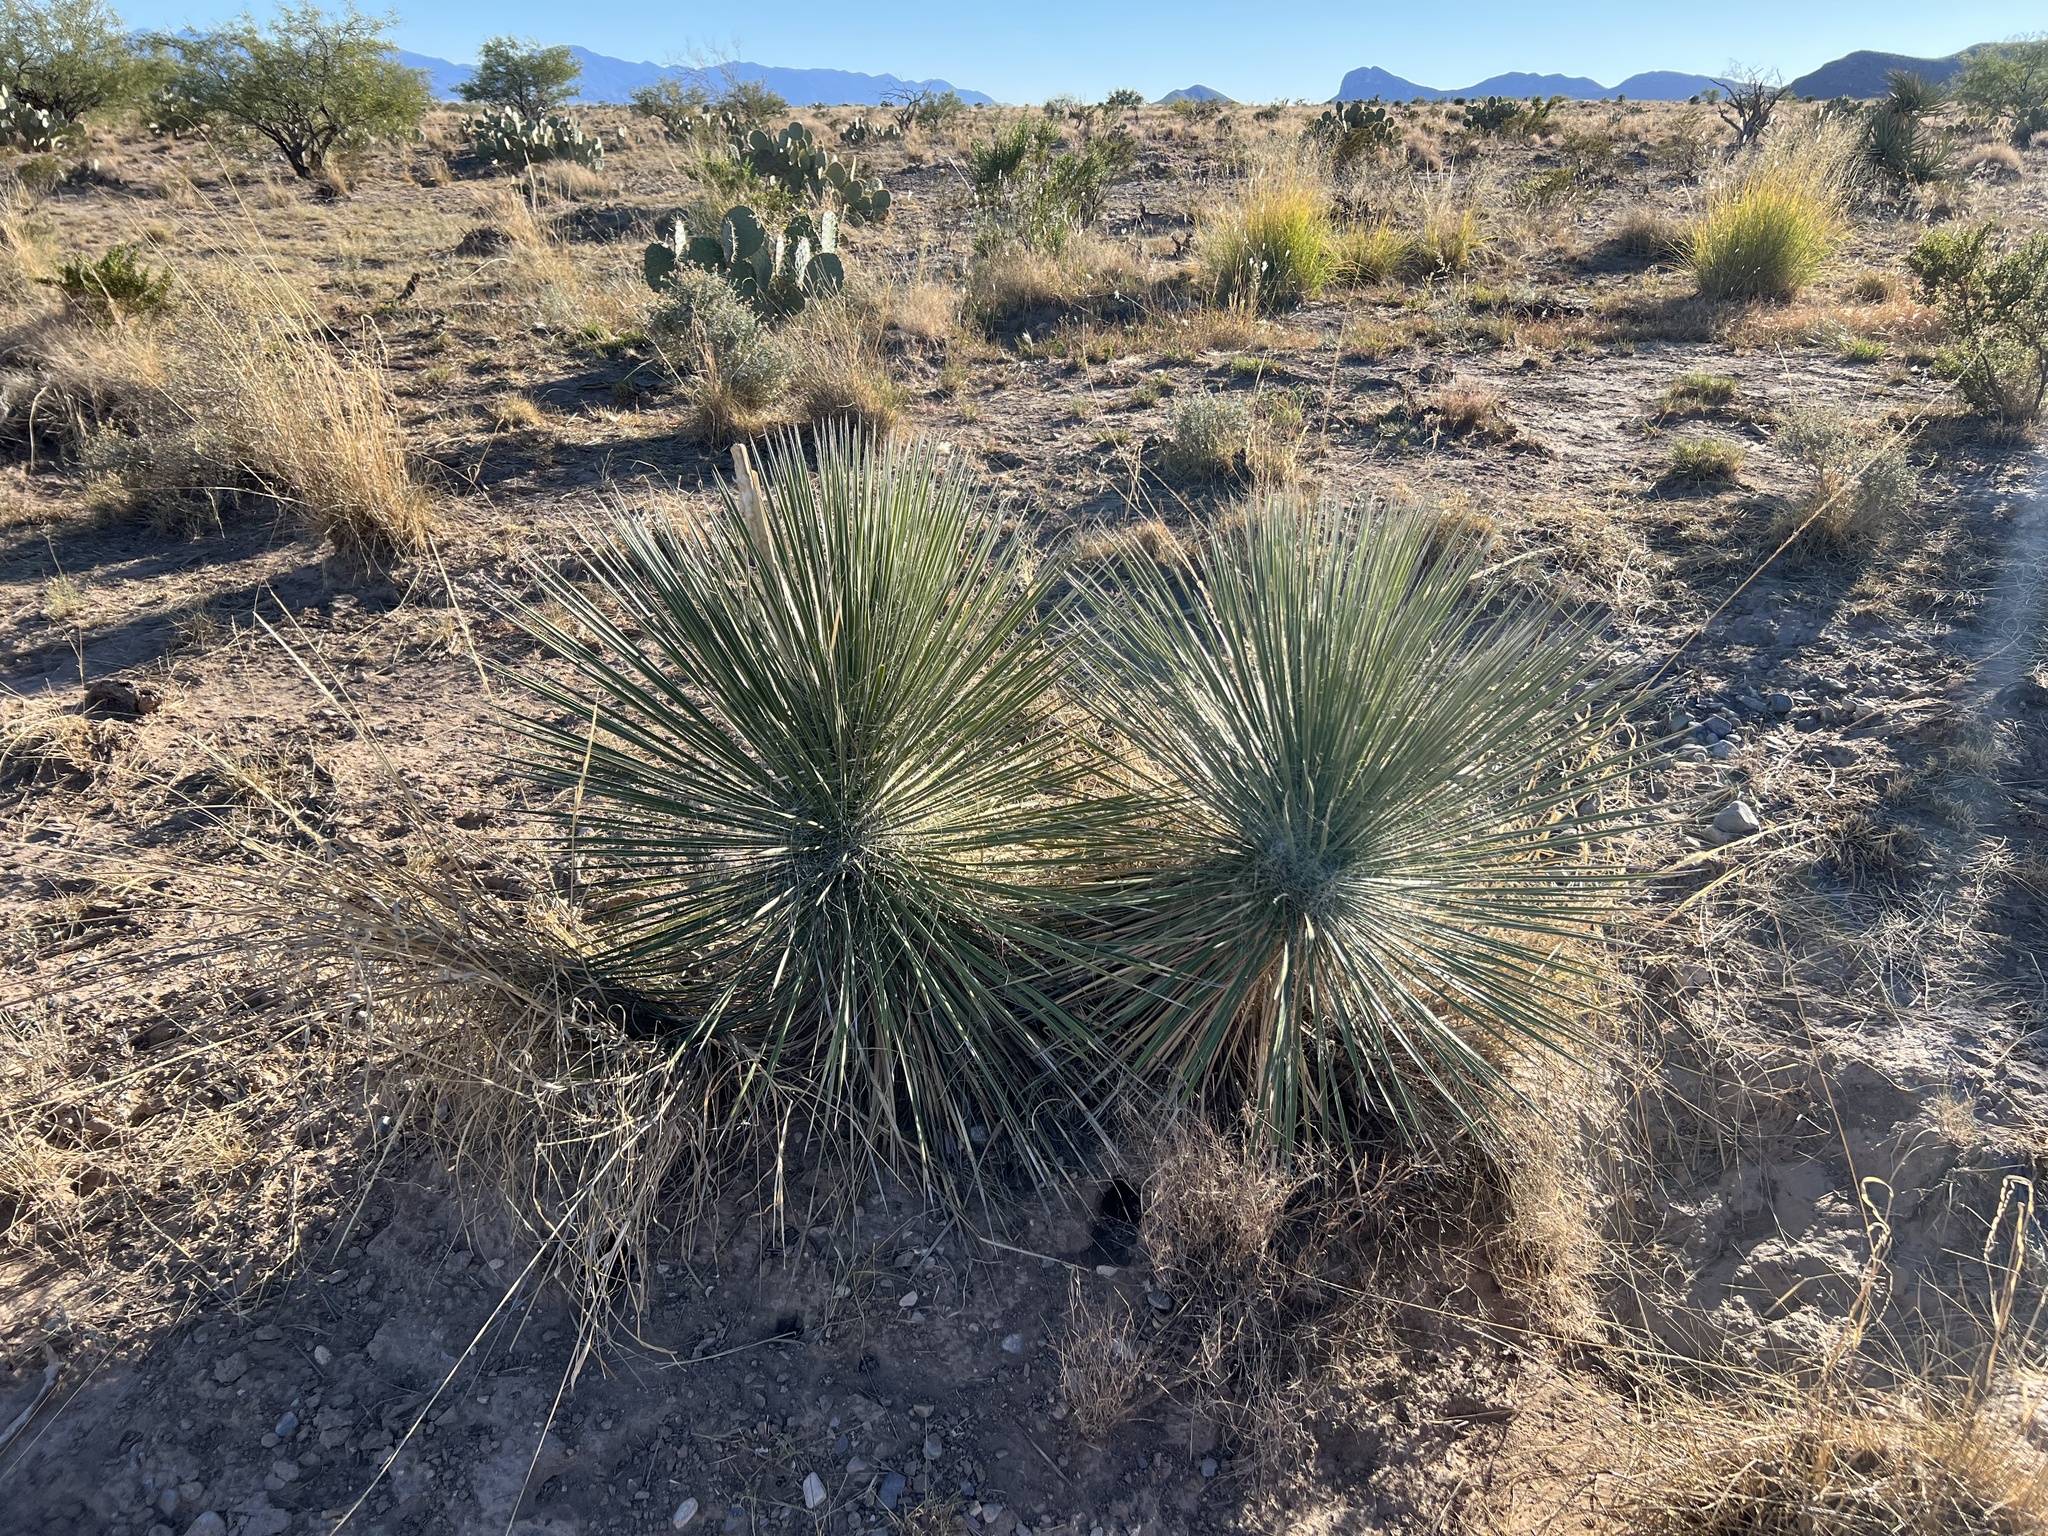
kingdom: Plantae
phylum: Tracheophyta
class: Liliopsida
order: Asparagales
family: Asparagaceae
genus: Yucca
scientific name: Yucca elata
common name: Palmella
